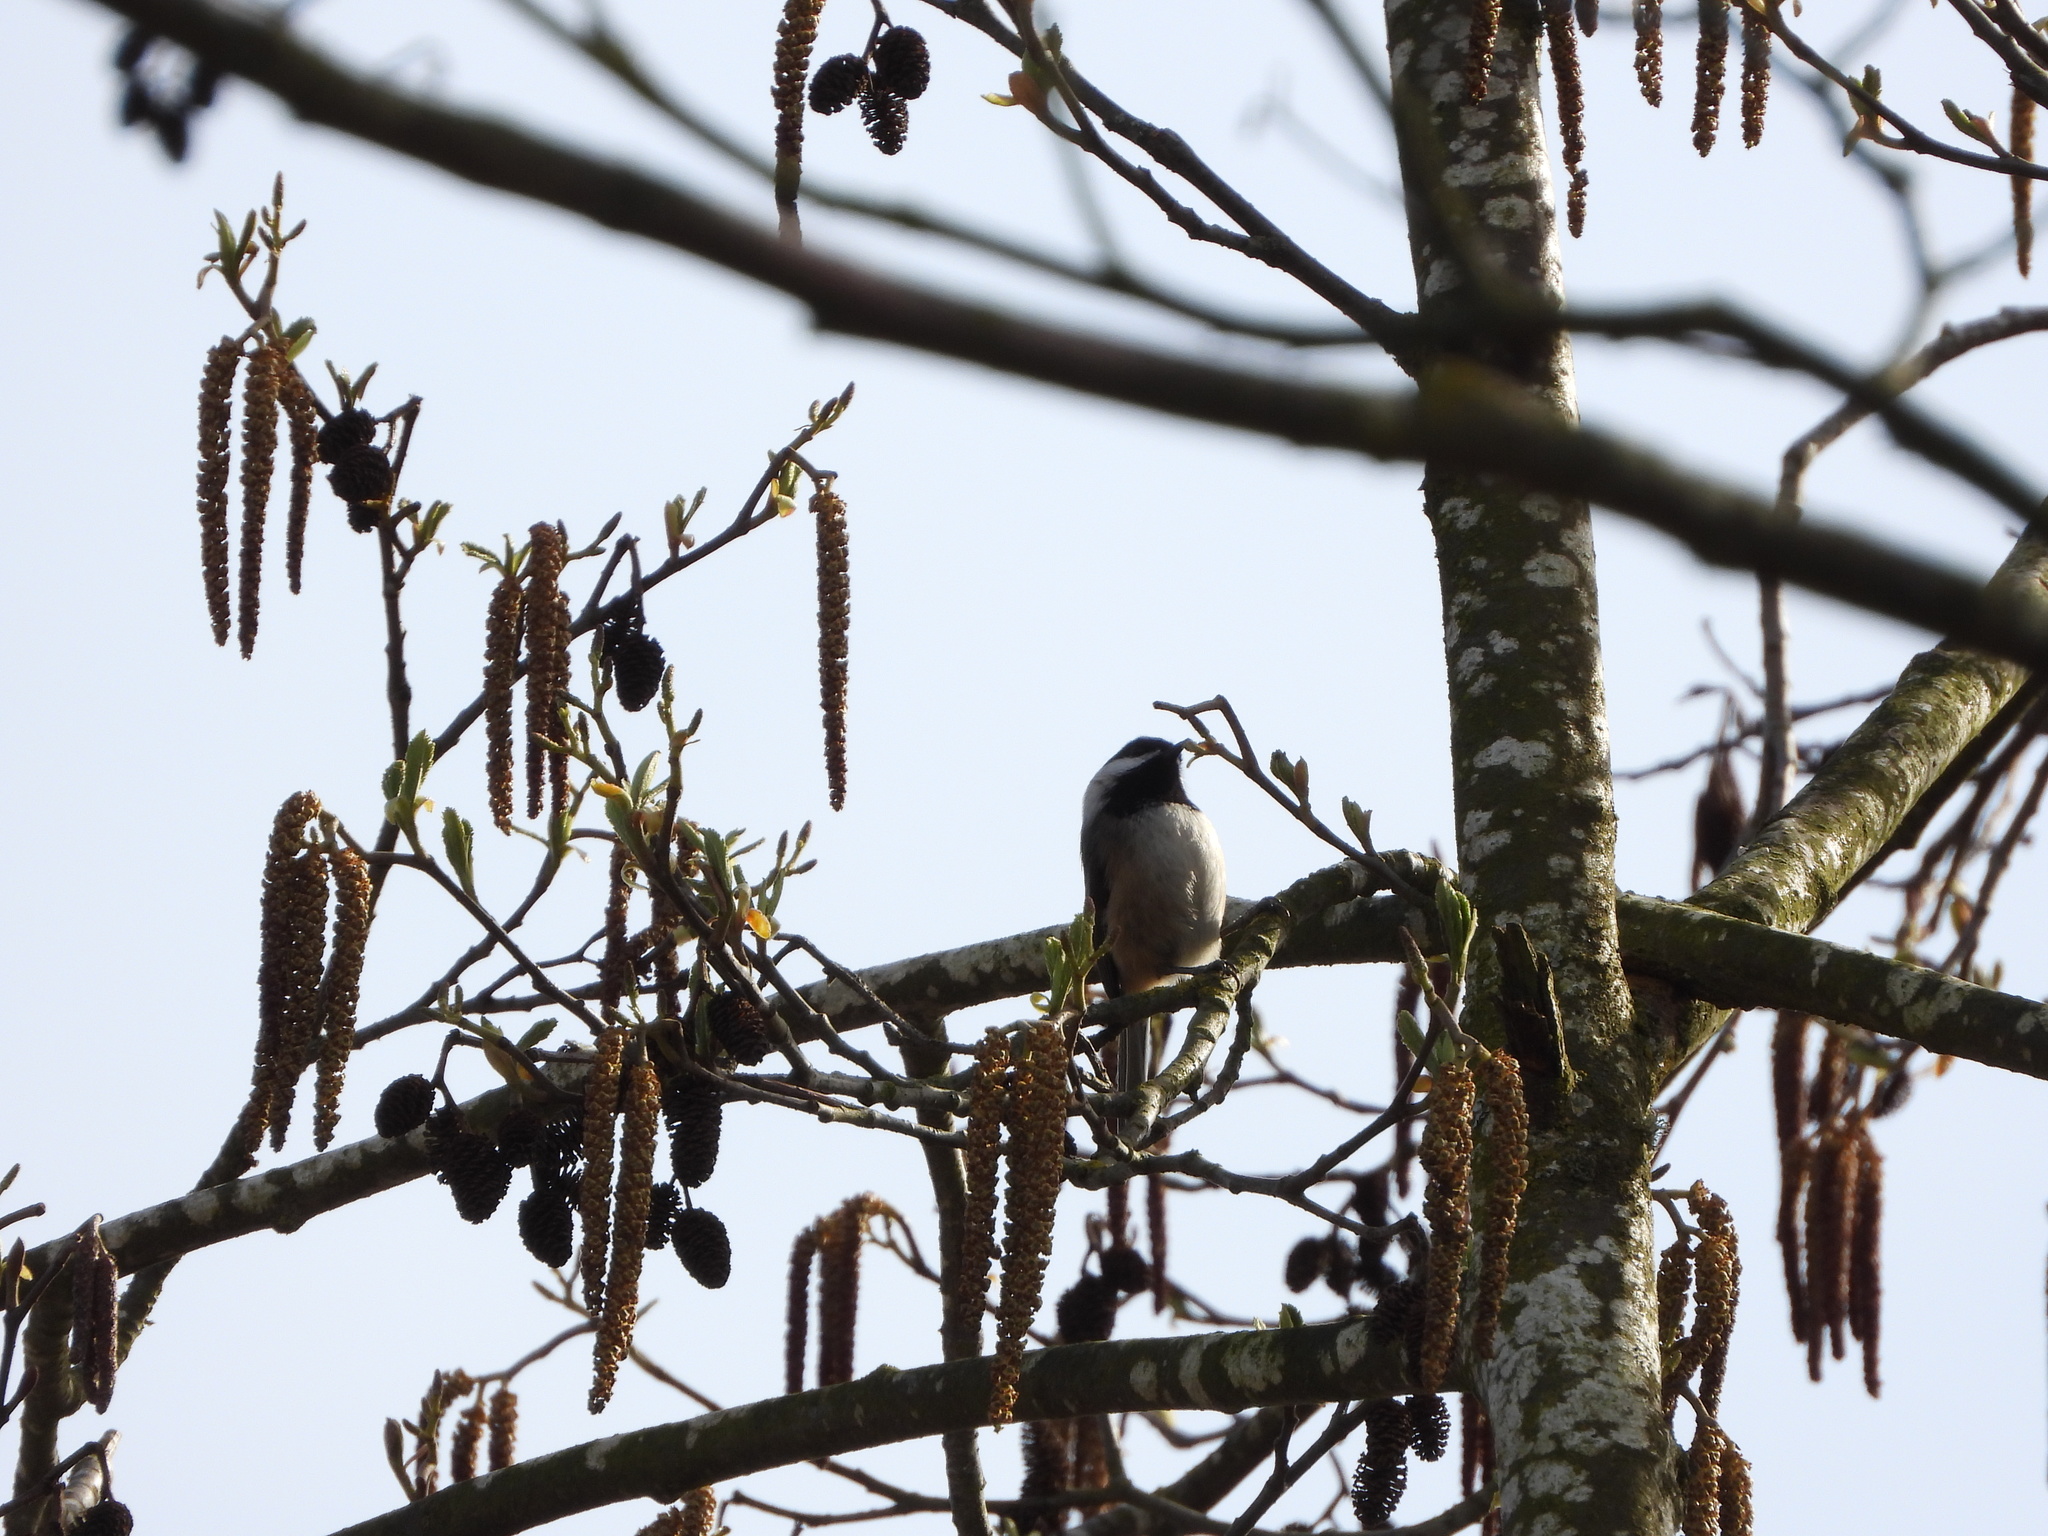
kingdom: Animalia
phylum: Chordata
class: Aves
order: Passeriformes
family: Paridae
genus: Poecile
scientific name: Poecile atricapillus
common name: Black-capped chickadee
